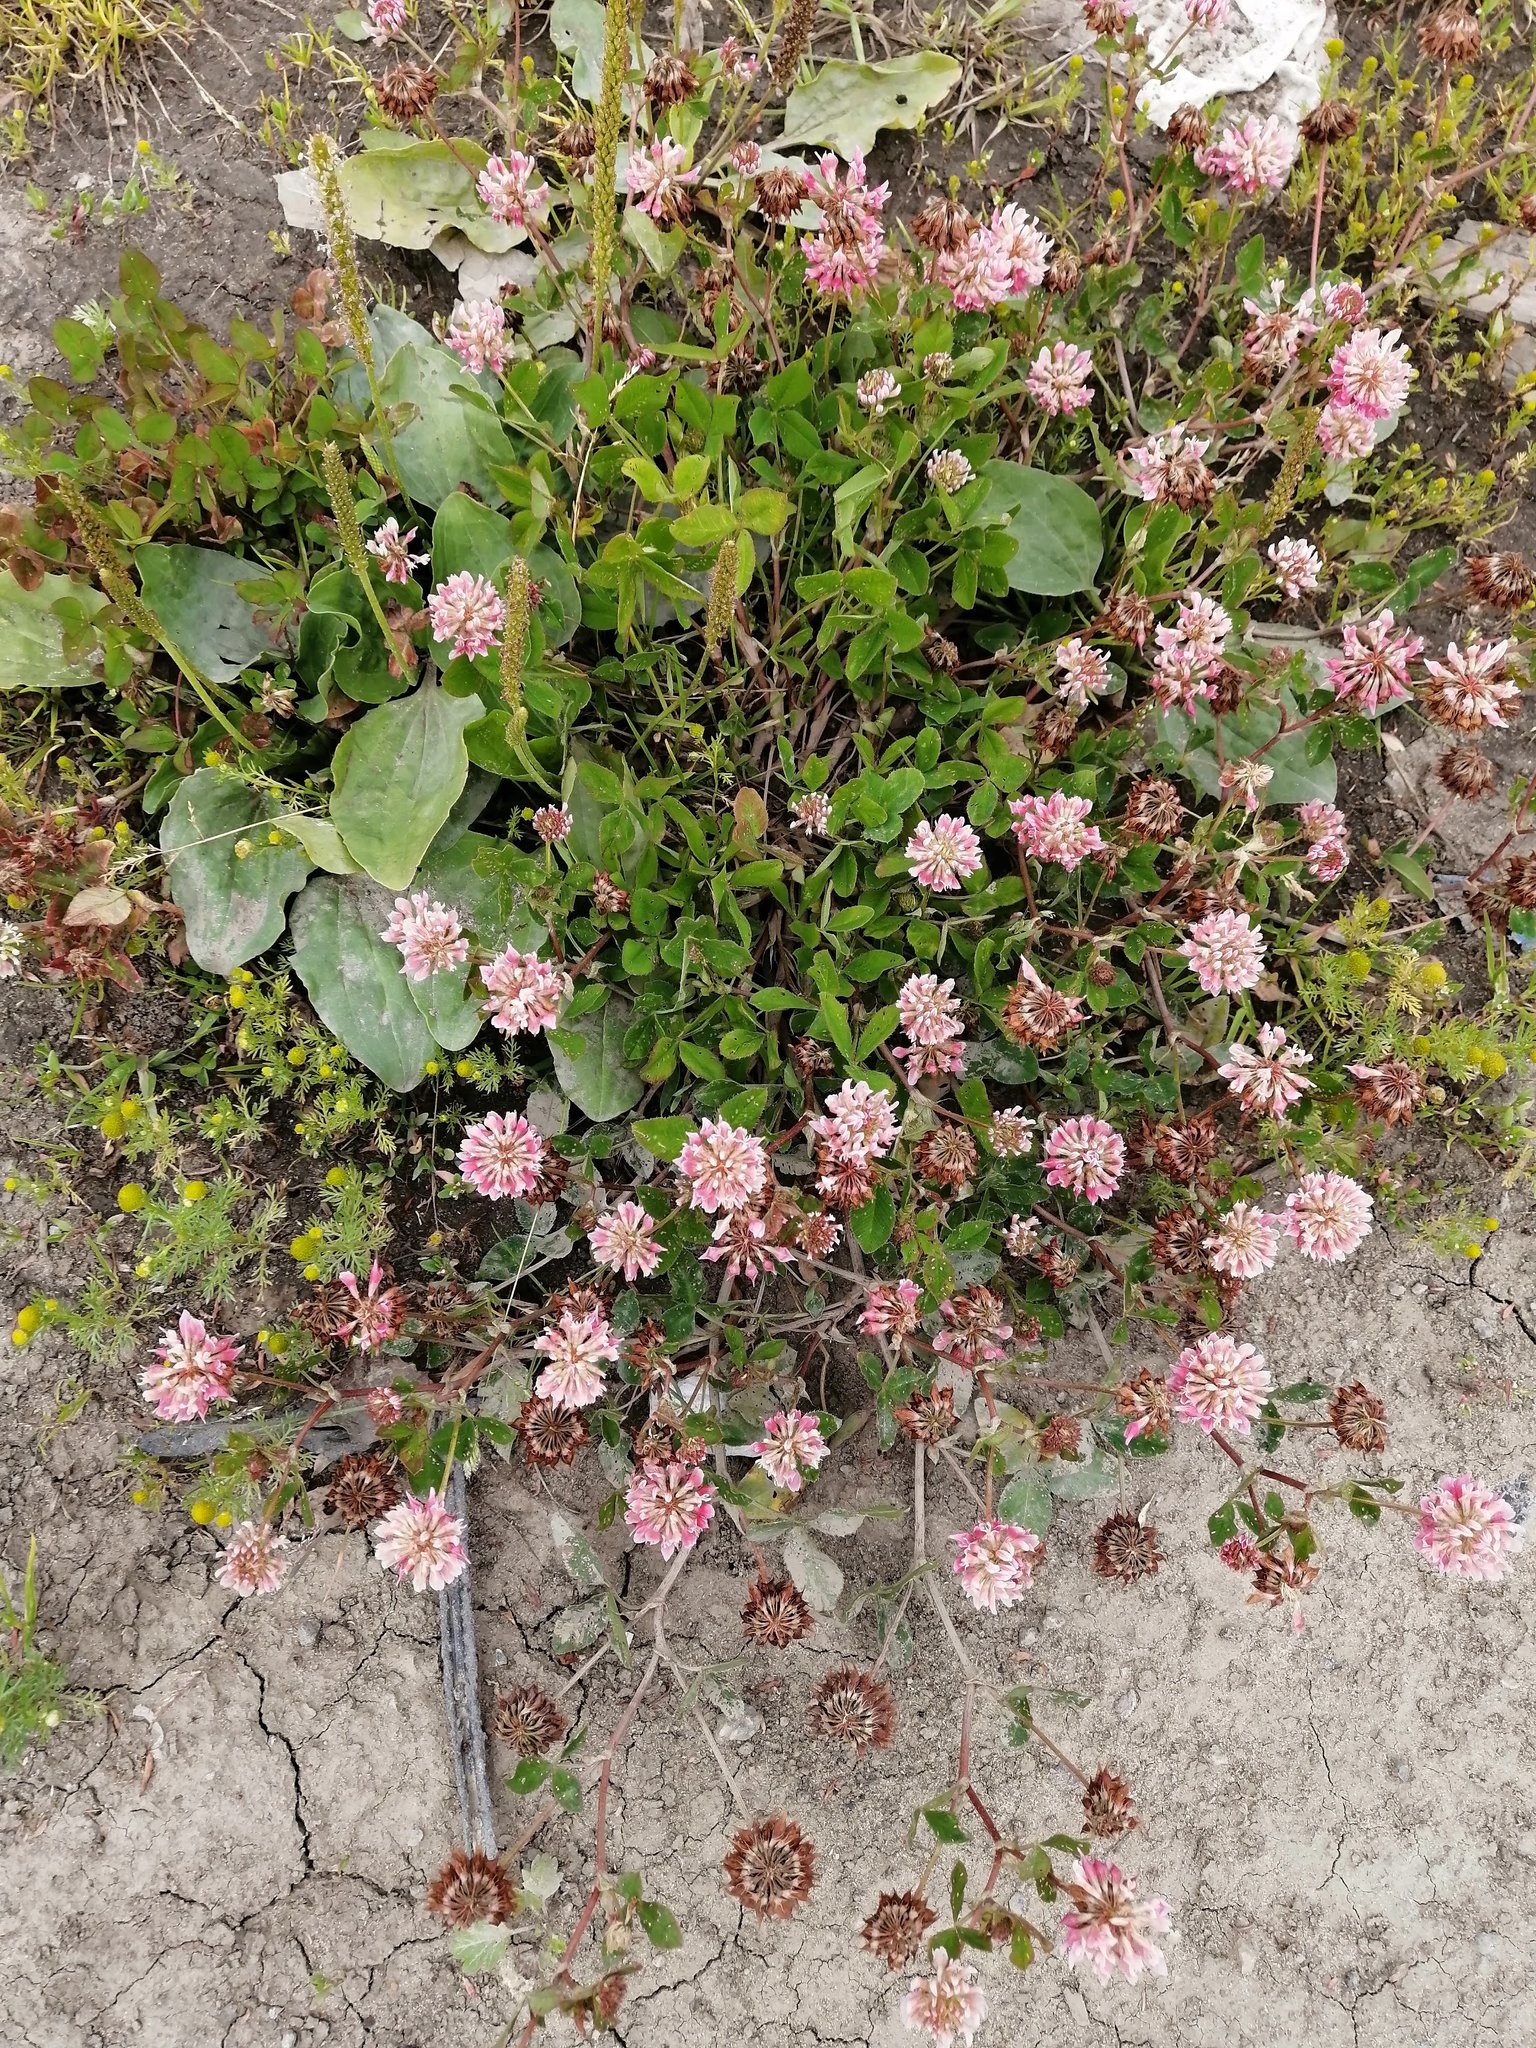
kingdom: Plantae
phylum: Tracheophyta
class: Magnoliopsida
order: Fabales
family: Fabaceae
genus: Trifolium
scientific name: Trifolium hybridum
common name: Alsike clover
